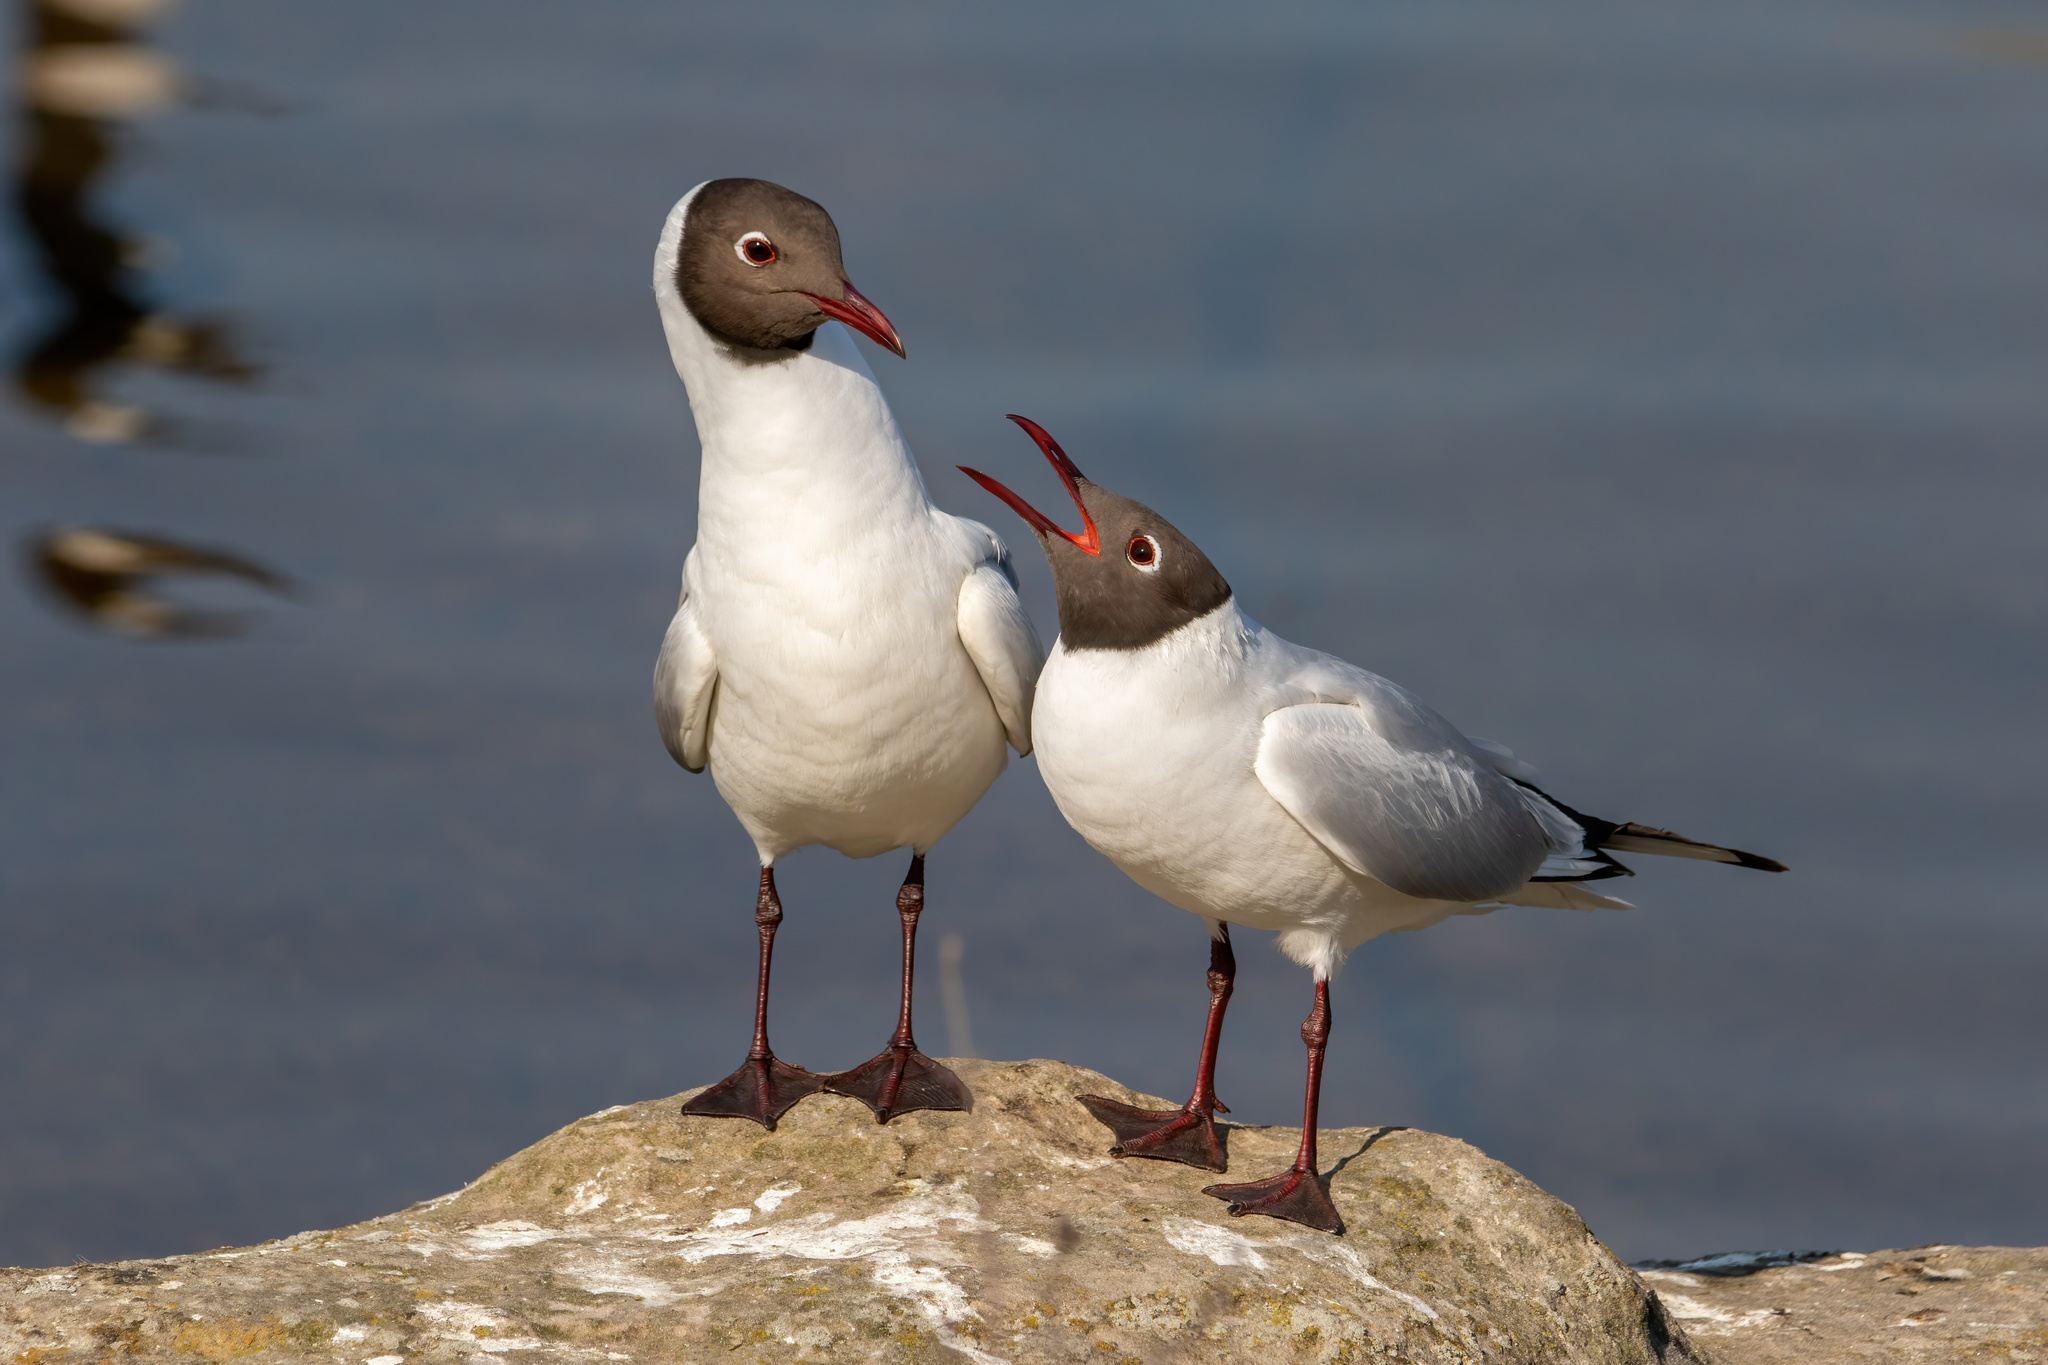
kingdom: Animalia
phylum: Chordata
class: Aves
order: Charadriiformes
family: Laridae
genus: Chroicocephalus
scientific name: Chroicocephalus ridibundus
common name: Black-headed gull
